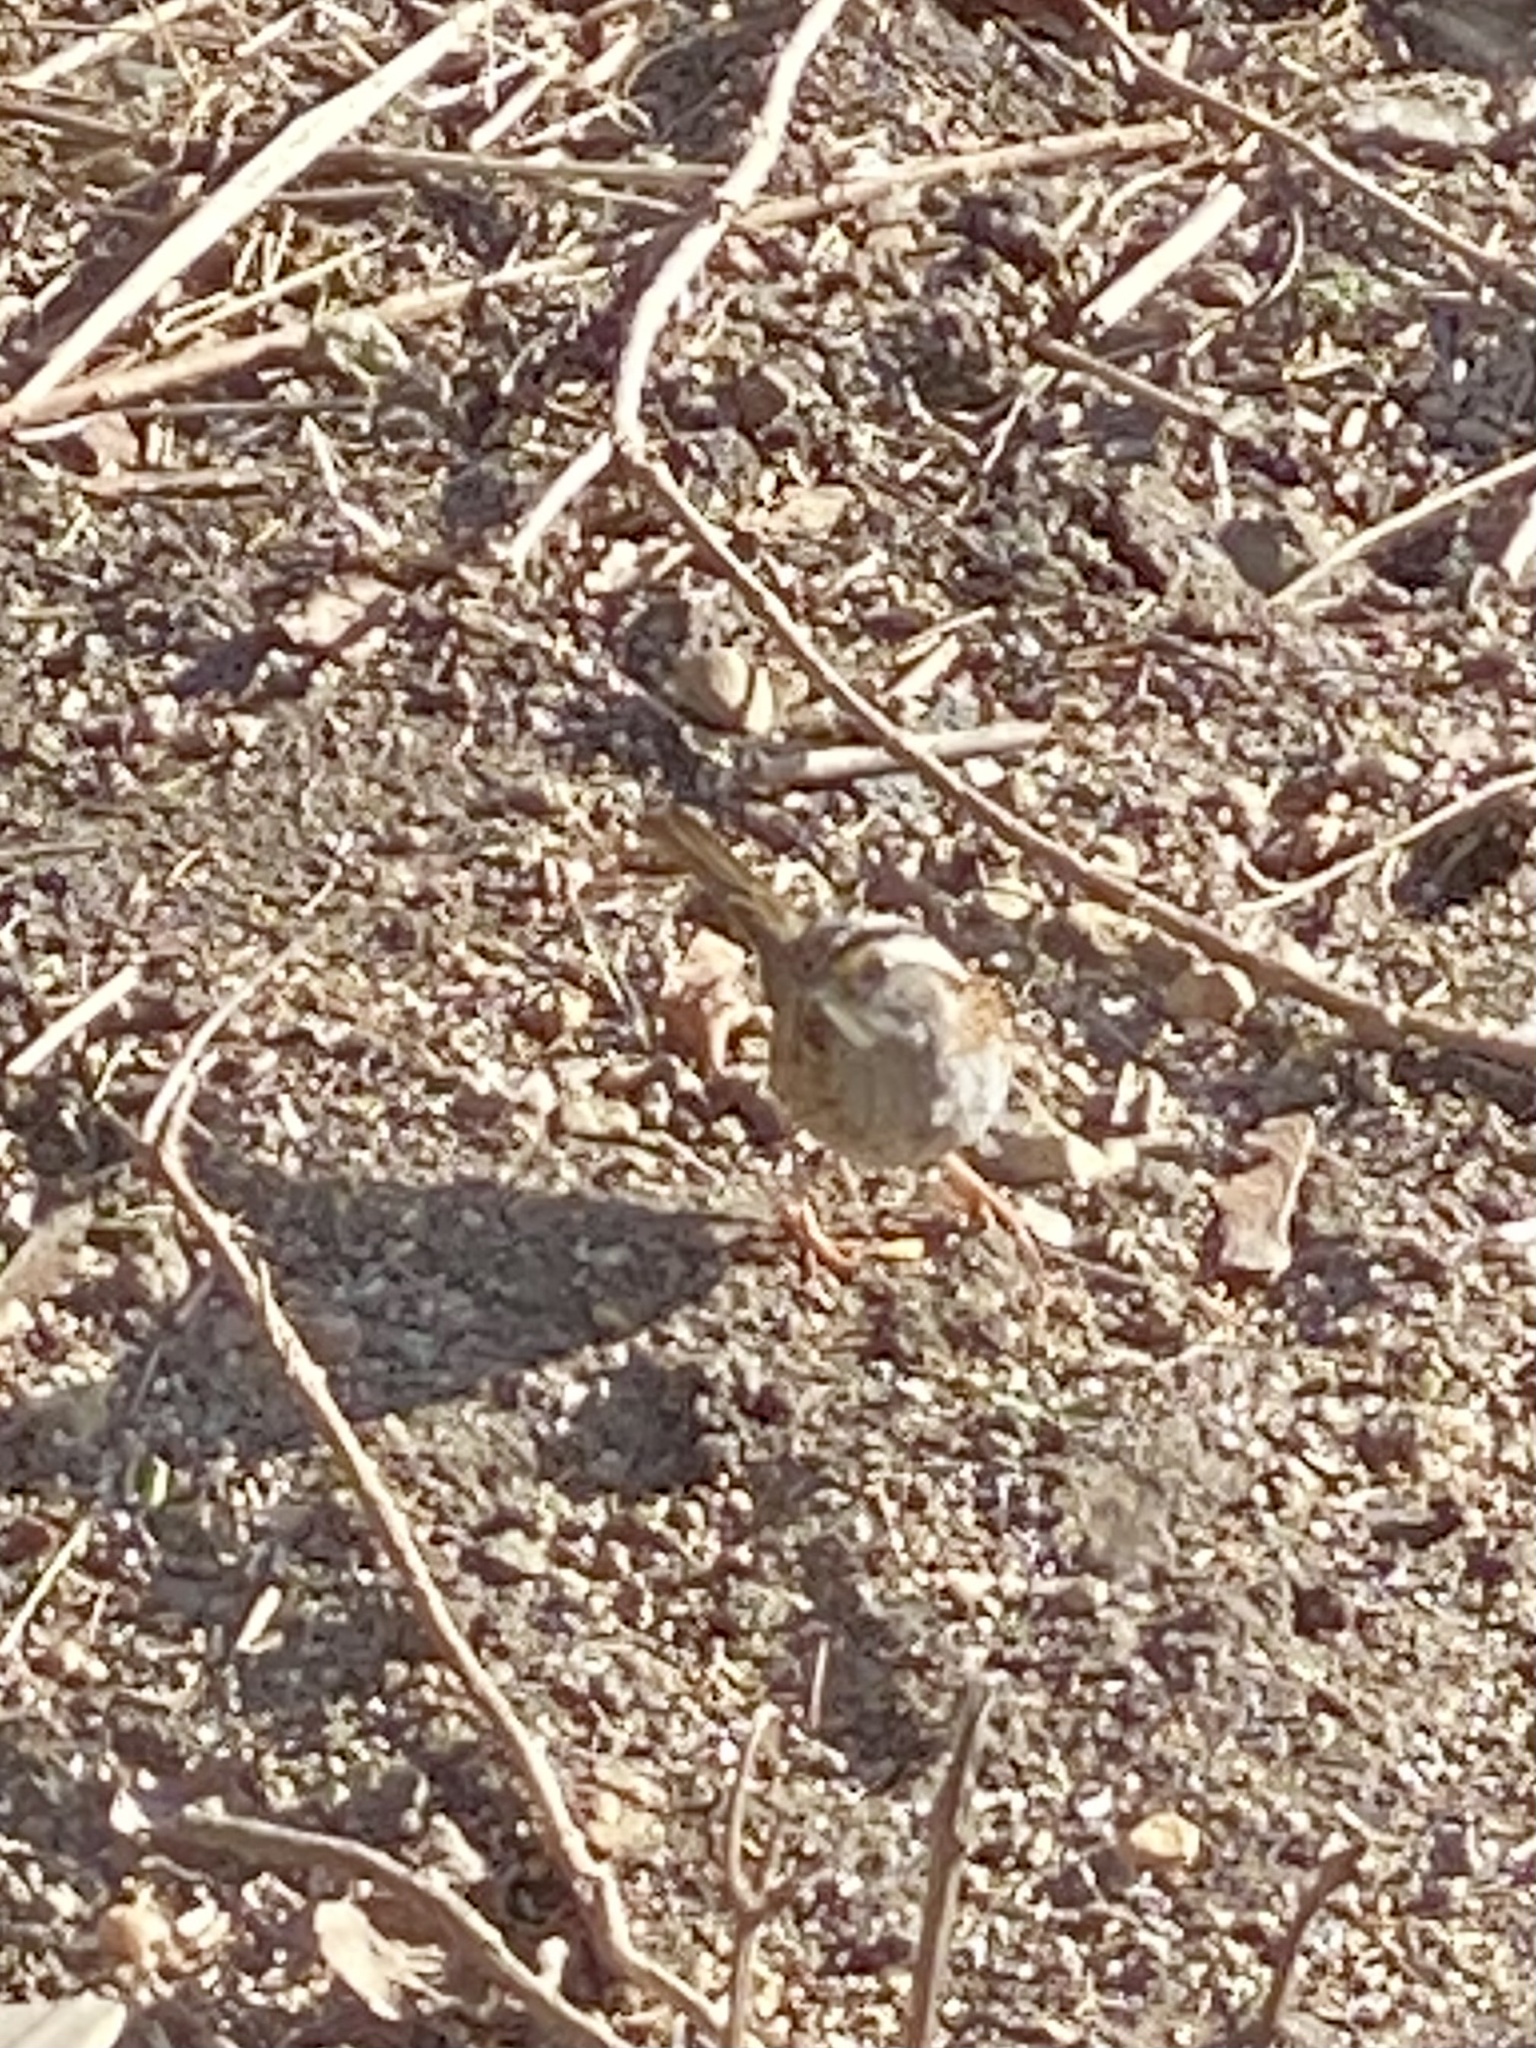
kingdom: Animalia
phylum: Chordata
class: Aves
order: Passeriformes
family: Passerellidae
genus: Zonotrichia
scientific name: Zonotrichia albicollis
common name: White-throated sparrow
